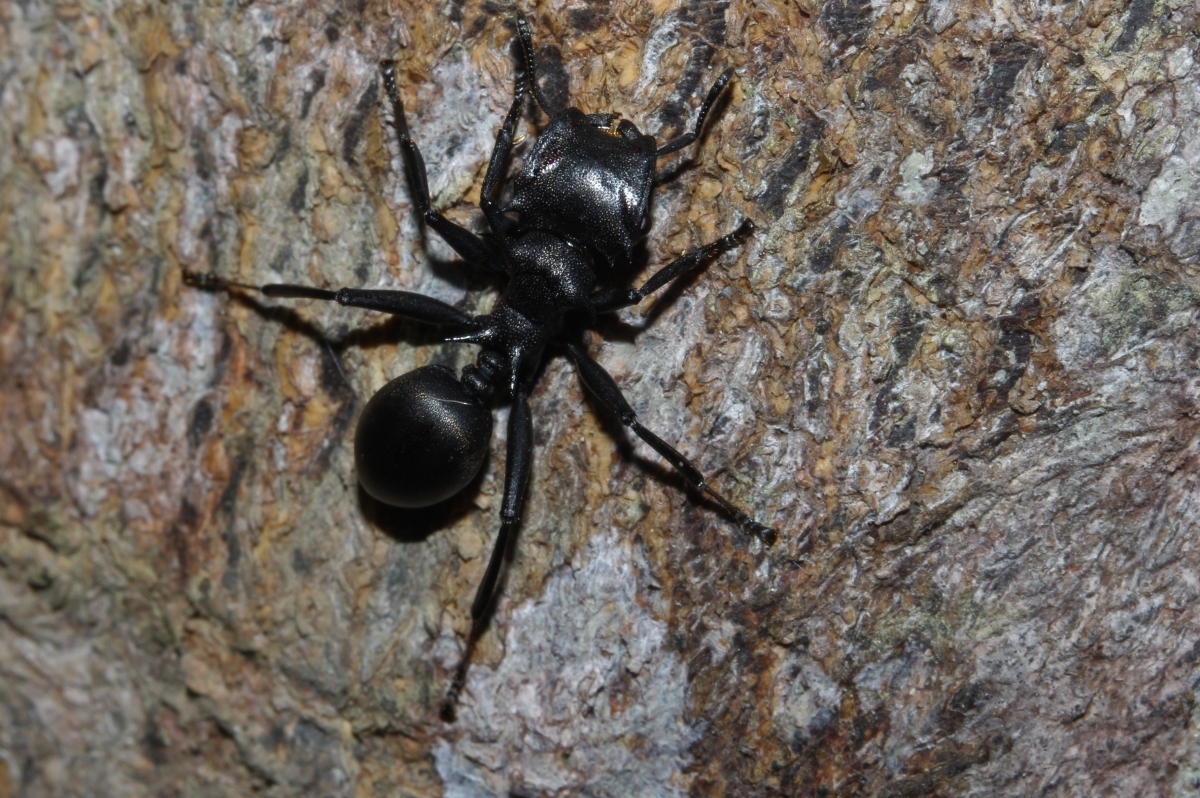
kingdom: Animalia
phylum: Arthropoda
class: Insecta
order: Hymenoptera
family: Formicidae
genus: Cephalotes
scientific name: Cephalotes atratus
